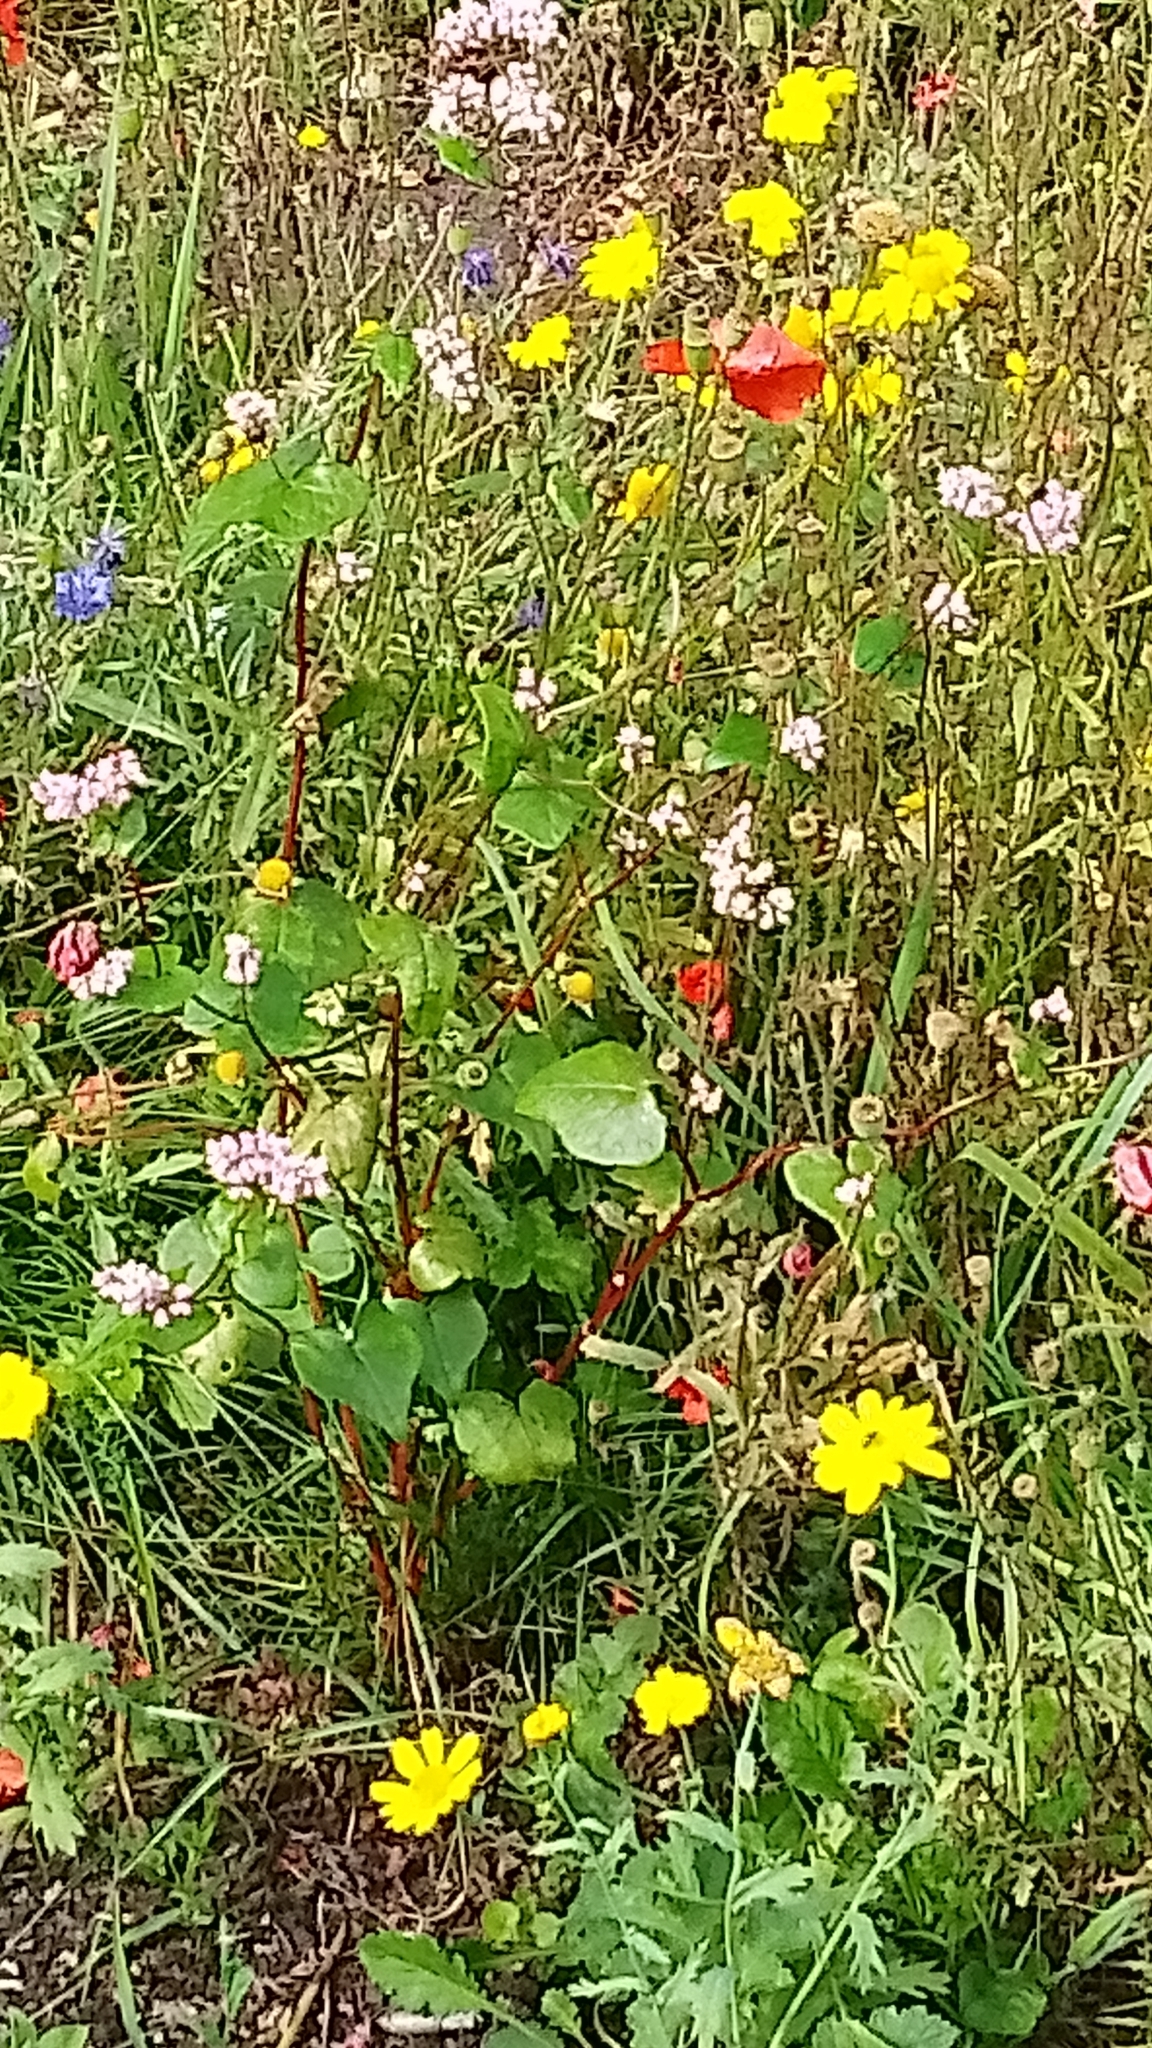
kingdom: Plantae
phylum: Tracheophyta
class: Magnoliopsida
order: Caryophyllales
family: Polygonaceae
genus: Persicaria
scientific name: Persicaria maculosa
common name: Redshank
